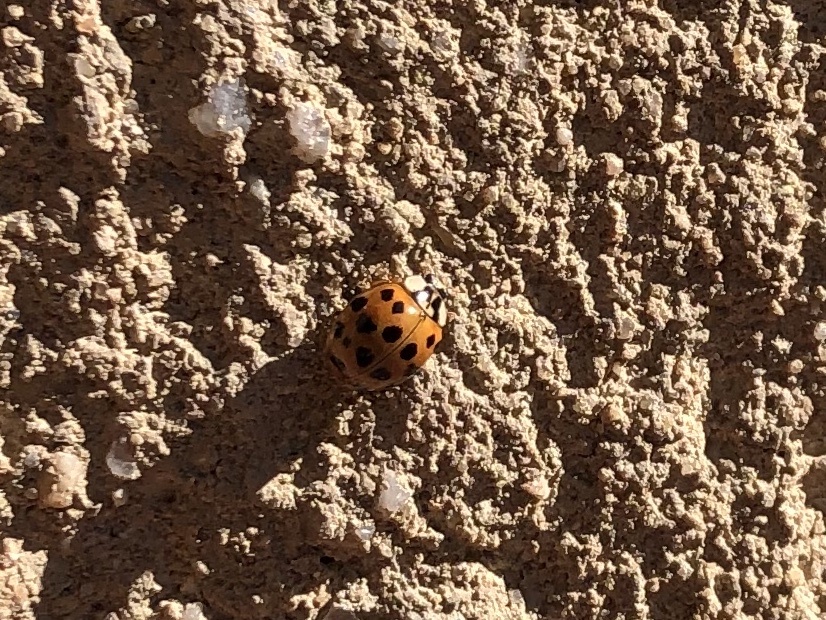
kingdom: Animalia
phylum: Arthropoda
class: Insecta
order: Coleoptera
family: Coccinellidae
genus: Harmonia
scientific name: Harmonia axyridis
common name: Harlequin ladybird
